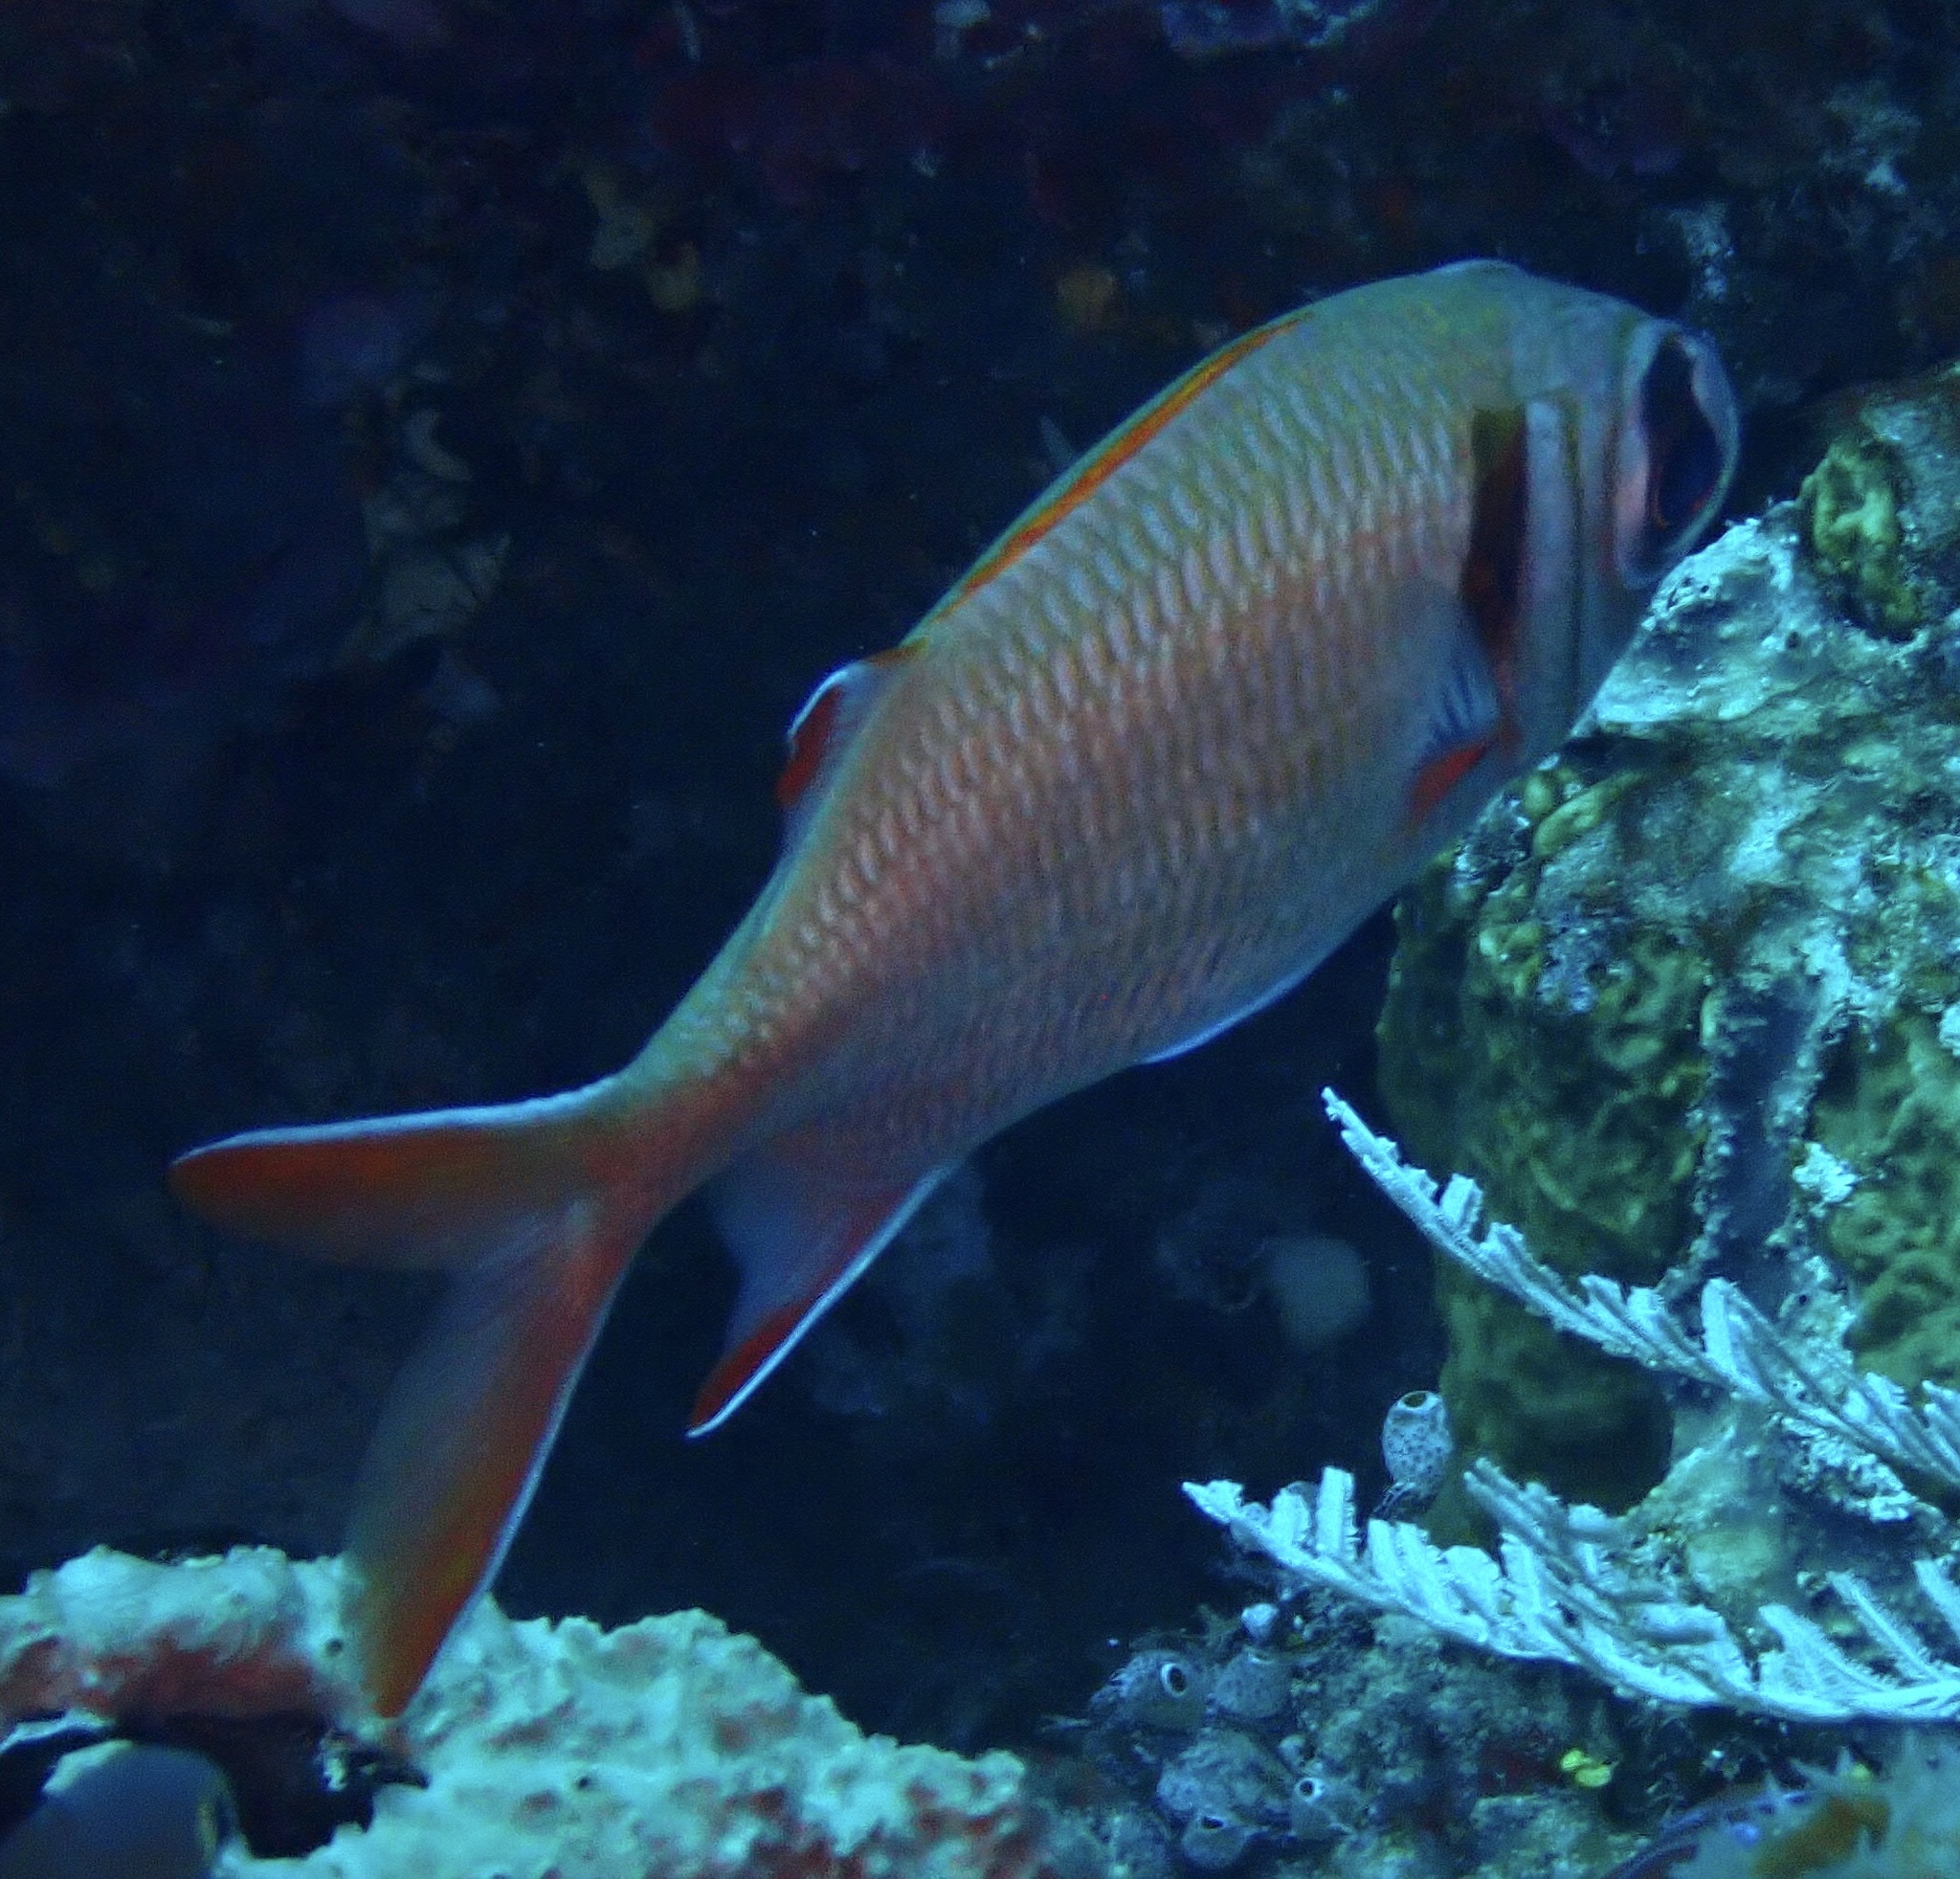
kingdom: Animalia
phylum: Chordata
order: Beryciformes
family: Holocentridae
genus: Myripristis
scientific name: Myripristis kuntee
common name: Epaulette soldierfish
